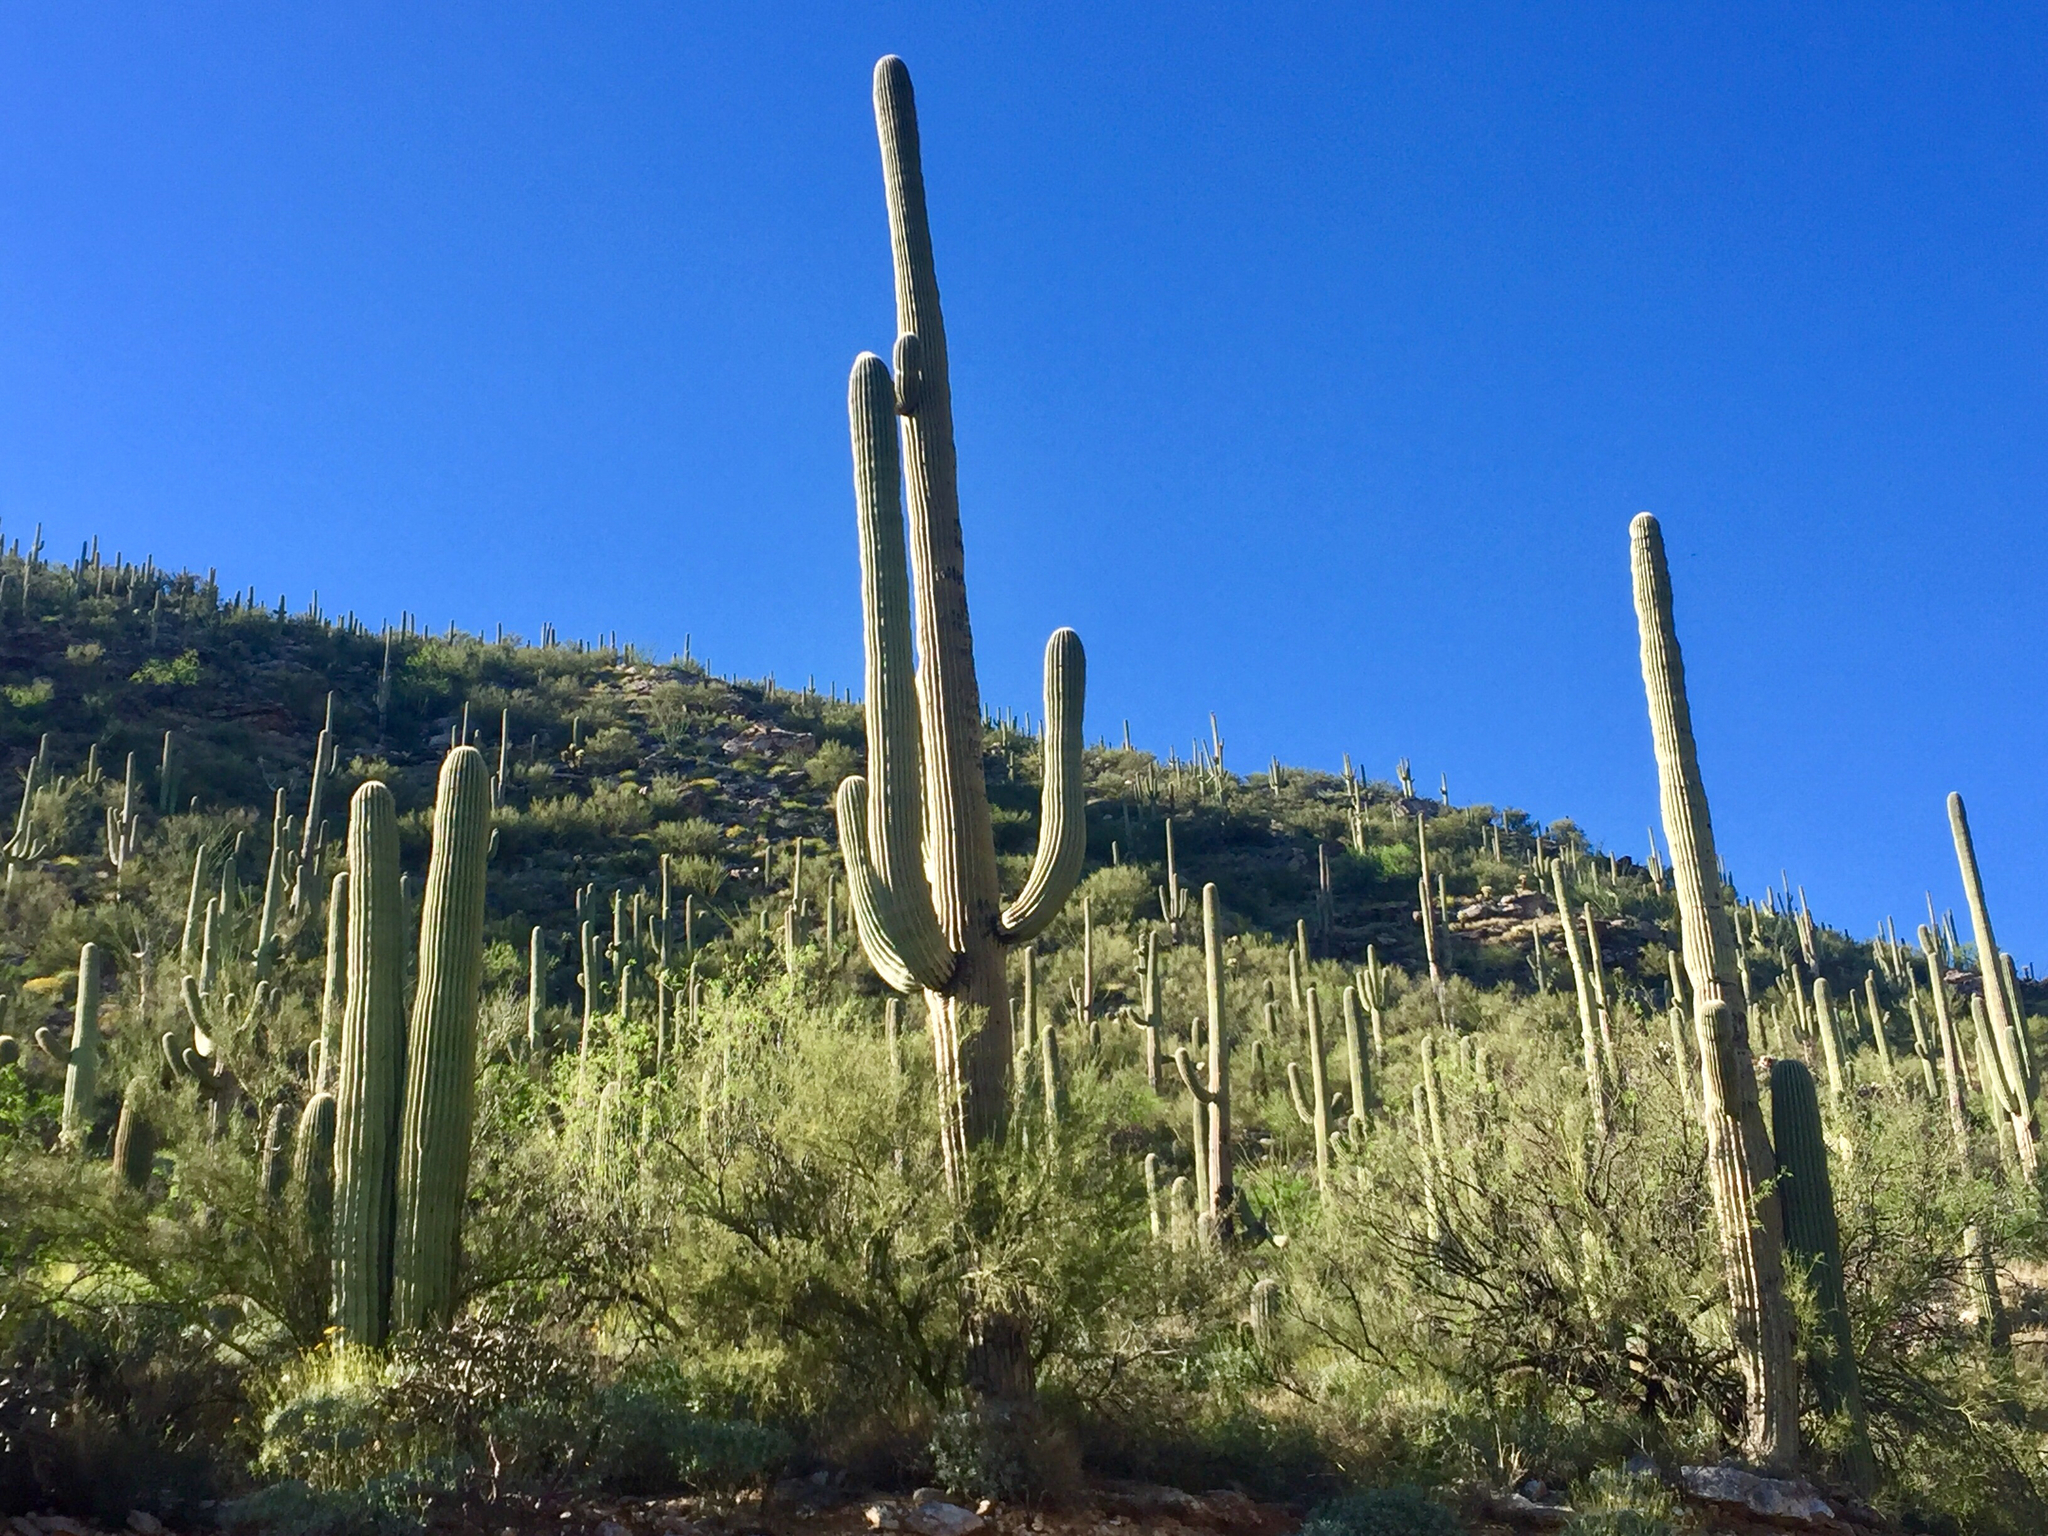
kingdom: Plantae
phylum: Tracheophyta
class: Magnoliopsida
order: Caryophyllales
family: Cactaceae
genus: Carnegiea
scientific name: Carnegiea gigantea
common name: Saguaro
